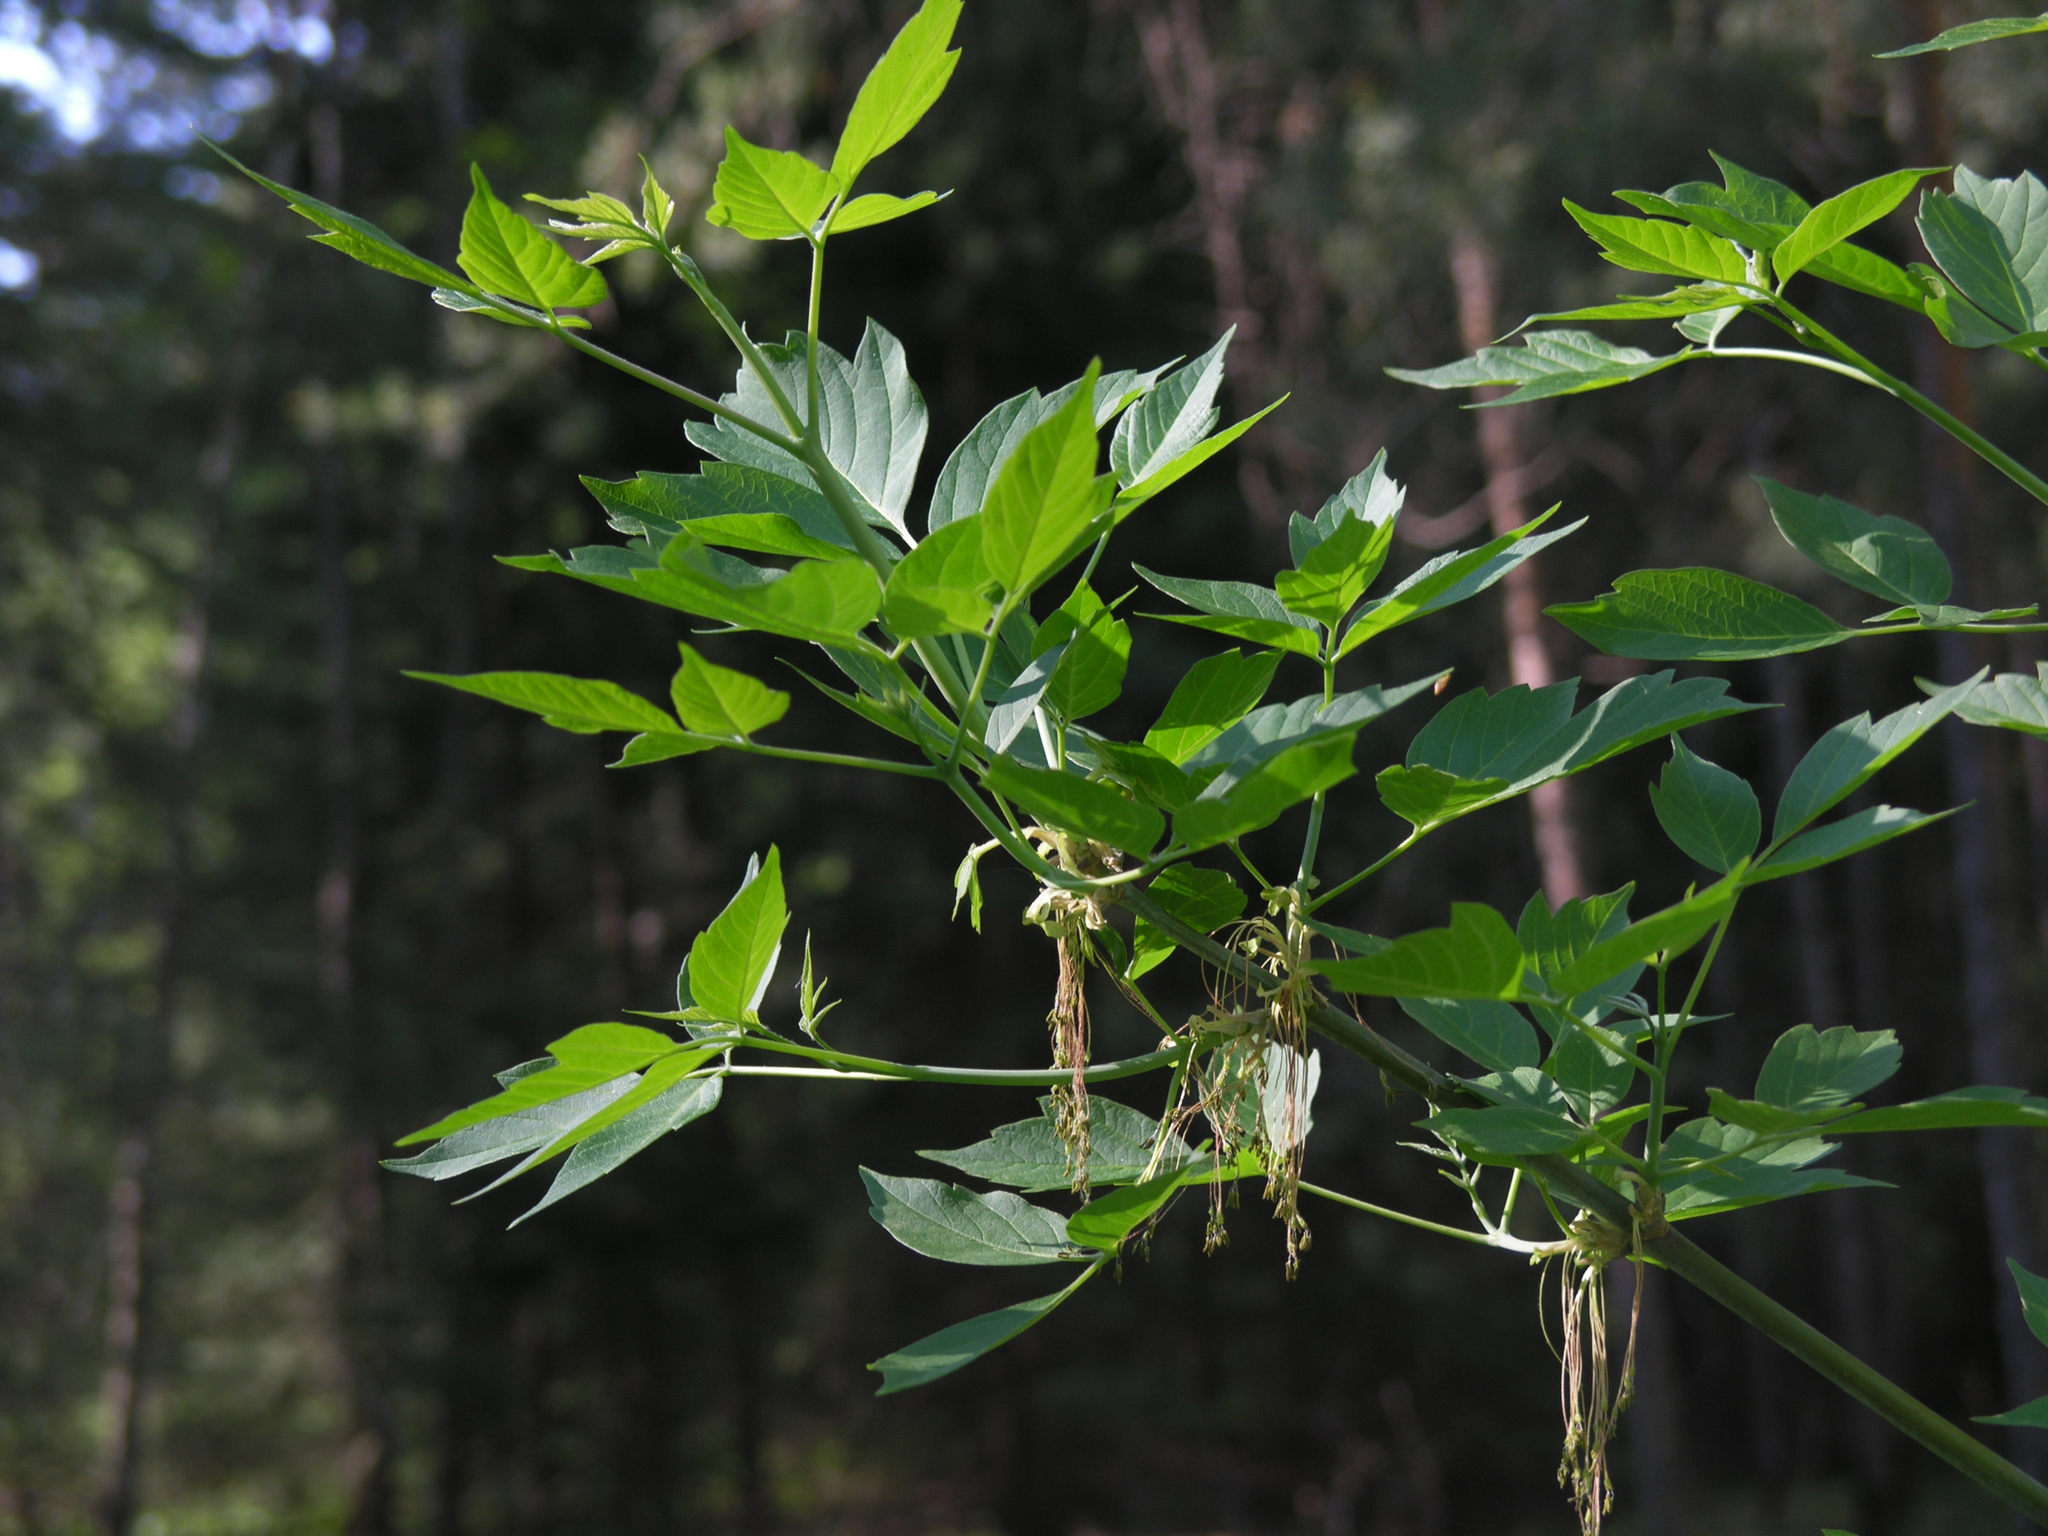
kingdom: Plantae
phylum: Tracheophyta
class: Magnoliopsida
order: Sapindales
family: Sapindaceae
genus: Acer
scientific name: Acer negundo
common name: Ashleaf maple
